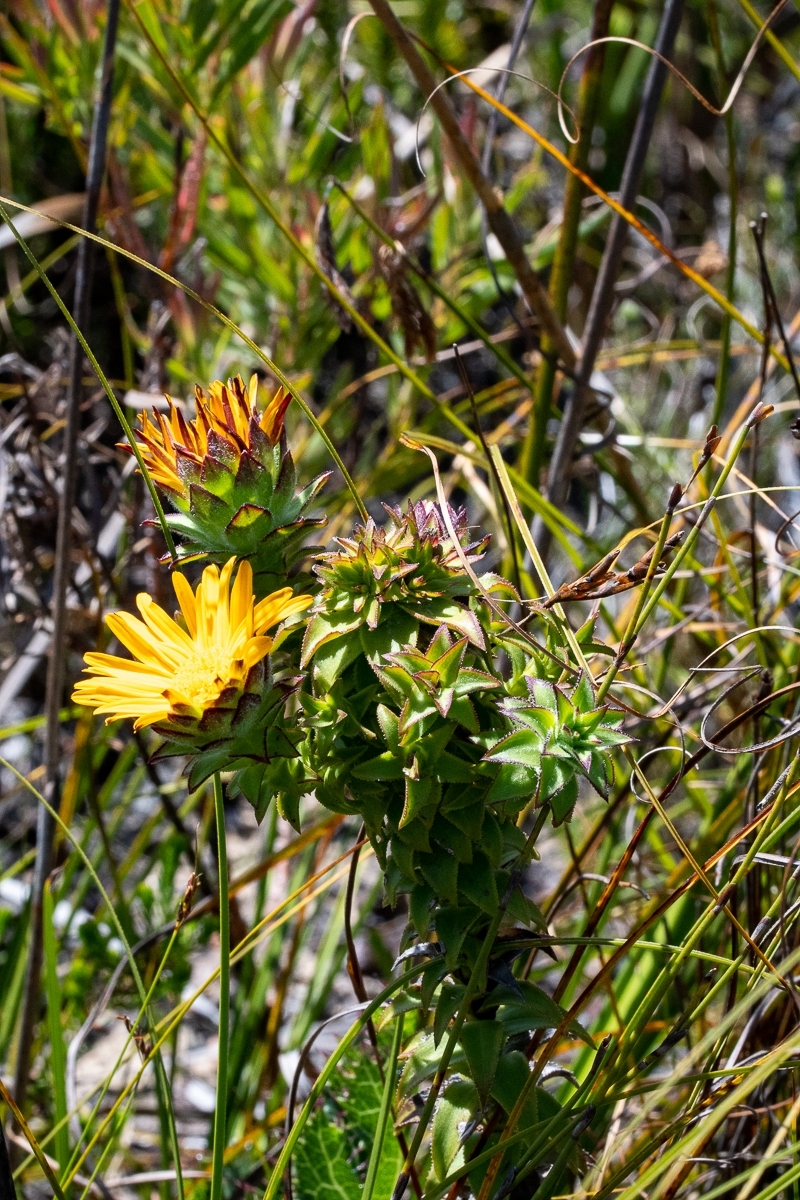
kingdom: Plantae
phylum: Tracheophyta
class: Magnoliopsida
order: Asterales
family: Asteraceae
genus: Oedera
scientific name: Oedera imbricata
